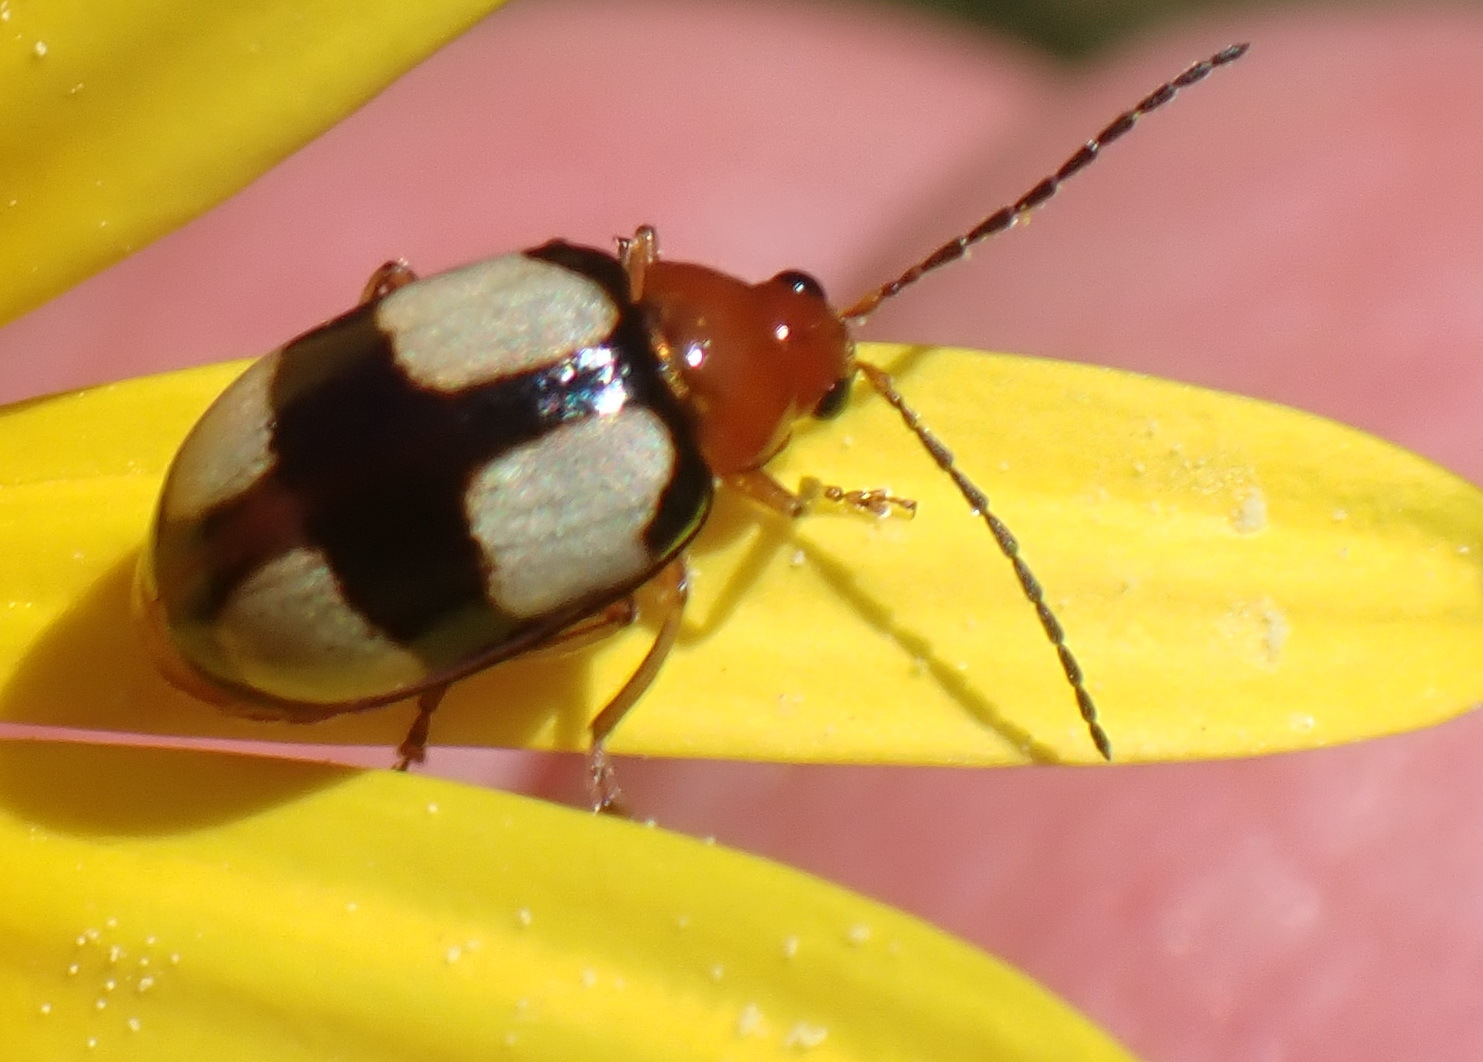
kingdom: Animalia
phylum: Arthropoda
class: Insecta
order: Coleoptera
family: Chrysomelidae
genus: Monolepta
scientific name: Monolepta
